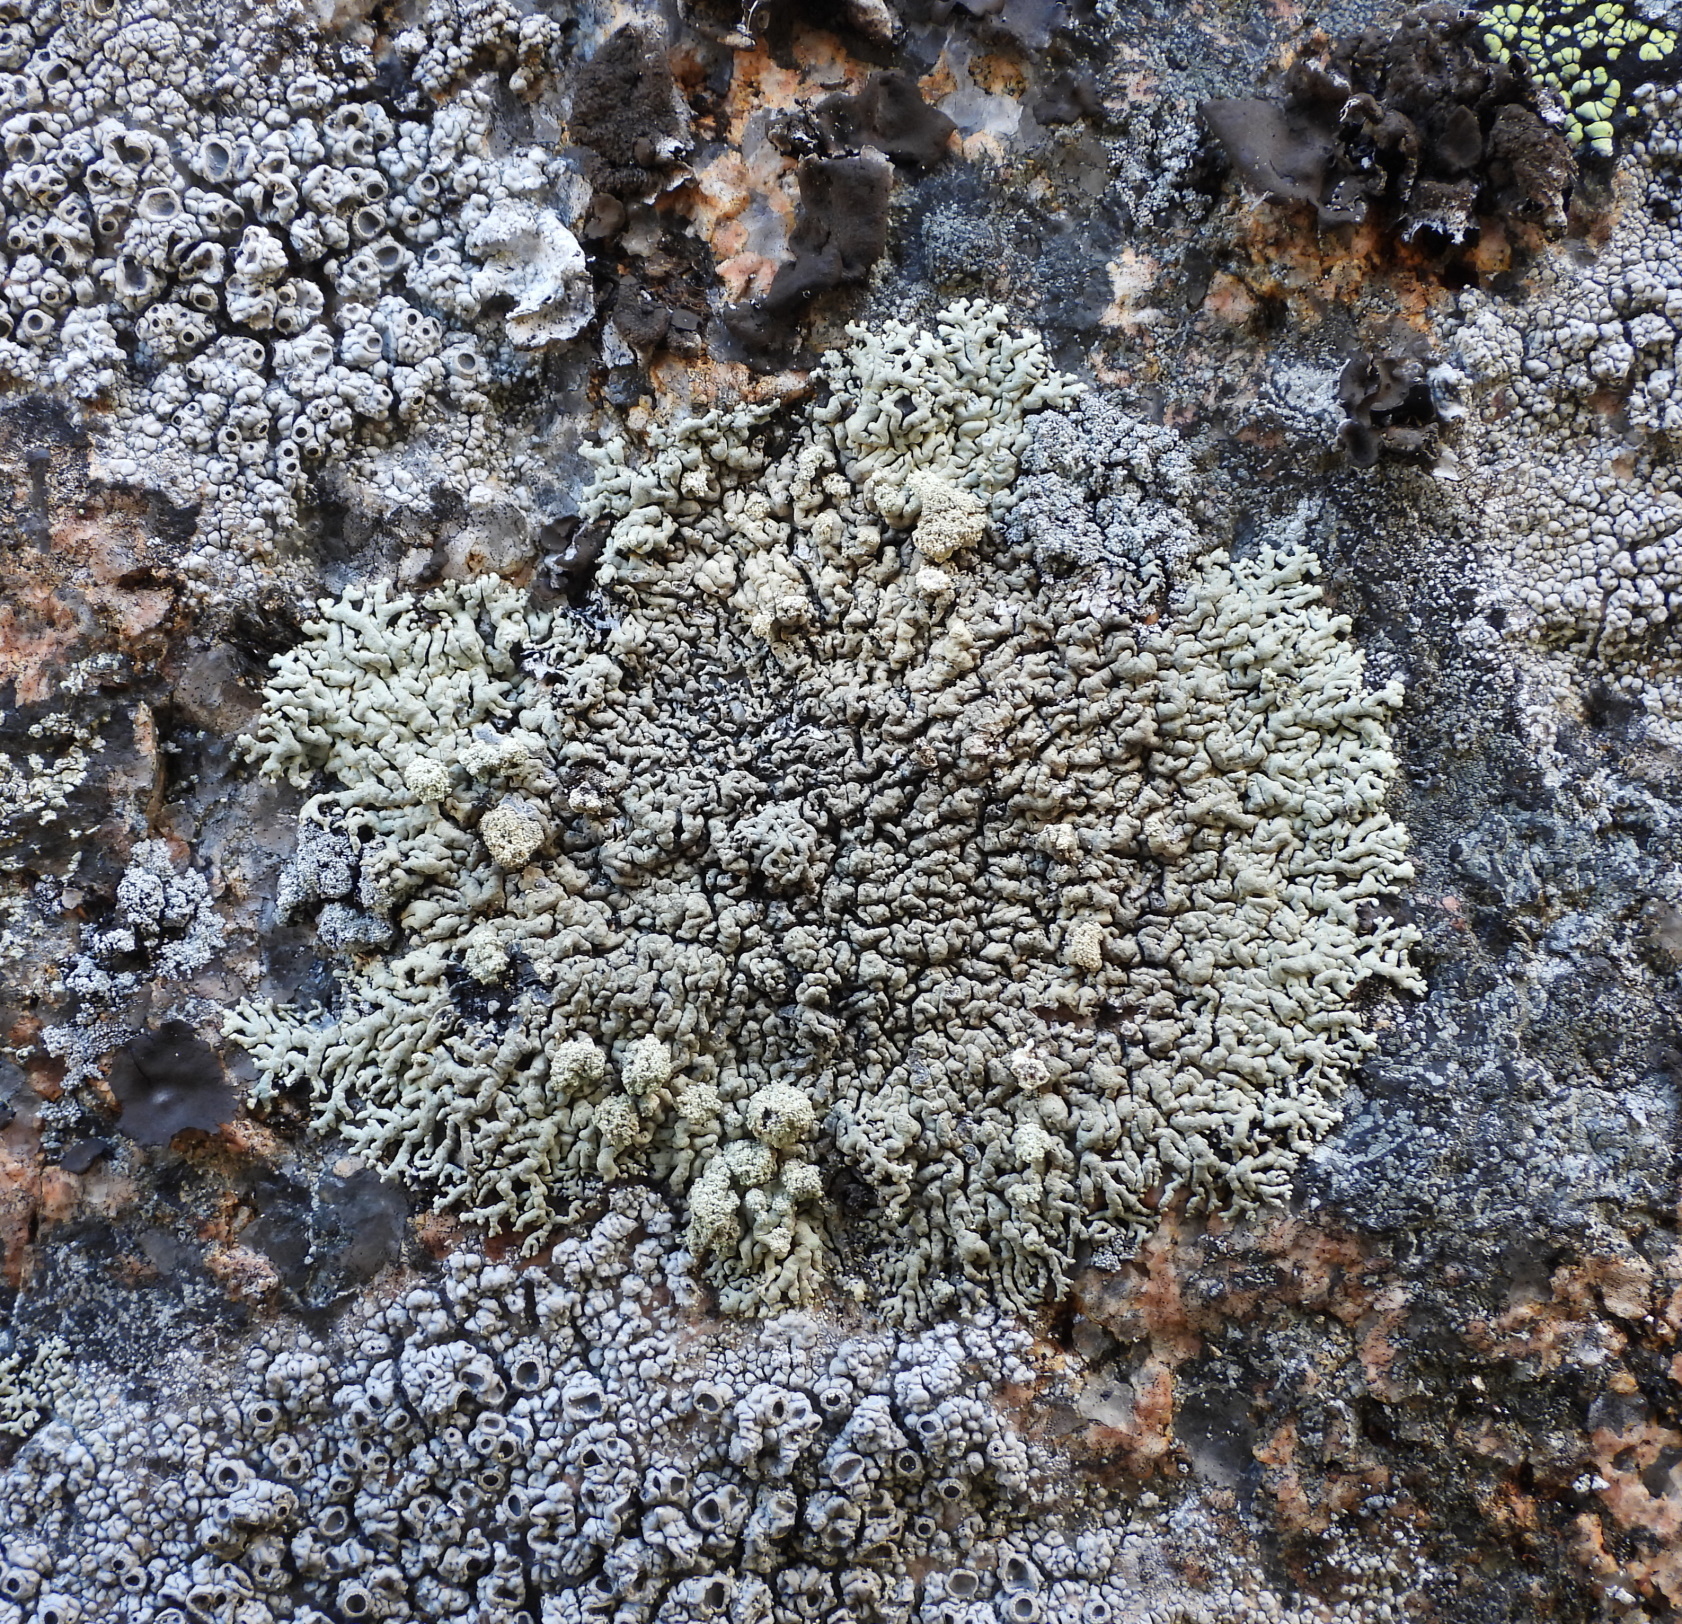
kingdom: Fungi
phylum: Ascomycota
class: Lecanoromycetes
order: Lecanorales
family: Parmeliaceae
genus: Arctoparmelia
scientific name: Arctoparmelia incurva
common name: Bent ring lichen
